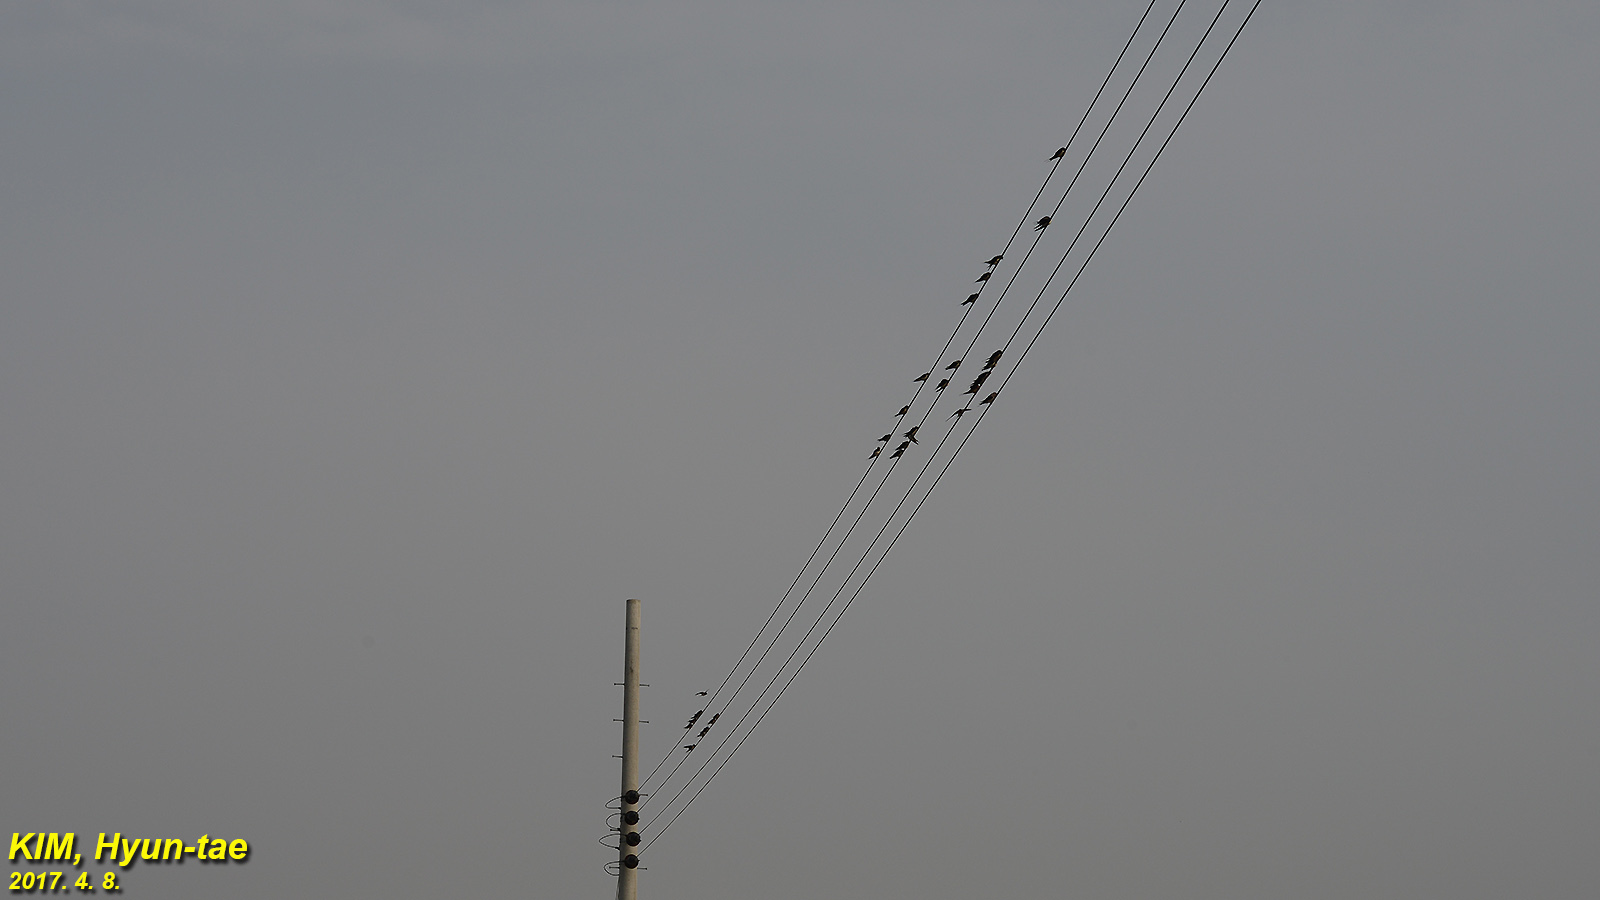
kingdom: Animalia
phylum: Chordata
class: Aves
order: Passeriformes
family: Hirundinidae
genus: Hirundo
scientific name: Hirundo rustica
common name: Barn swallow
